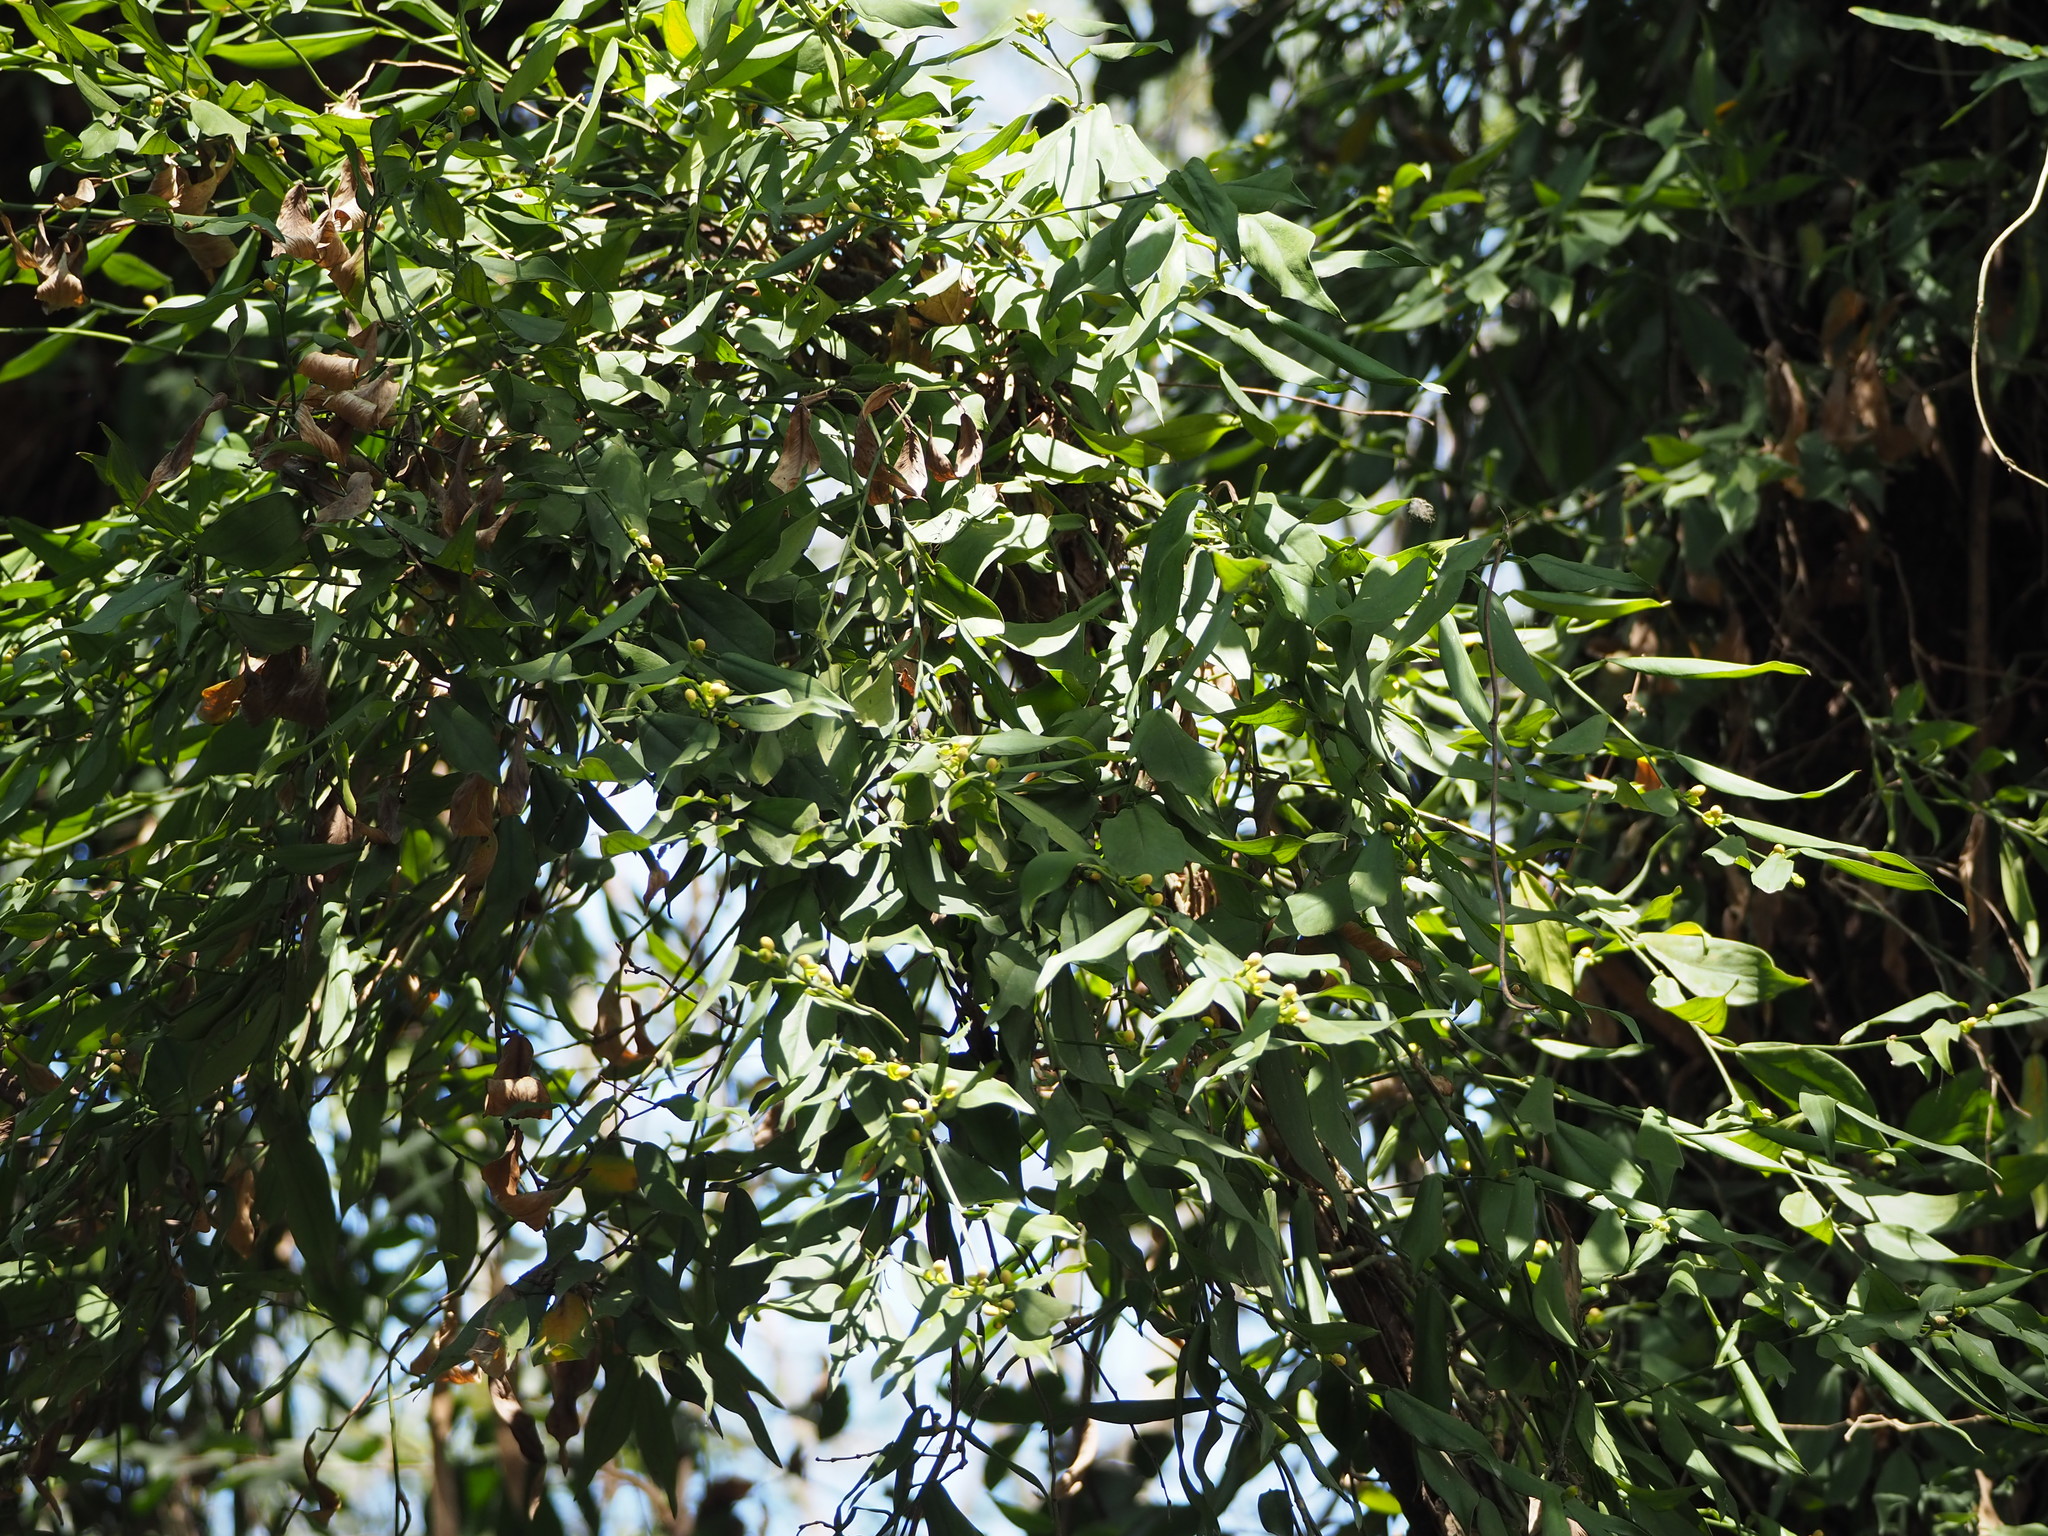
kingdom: Plantae
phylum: Tracheophyta
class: Liliopsida
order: Alismatales
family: Araceae
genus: Pothos
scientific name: Pothos chinensis
